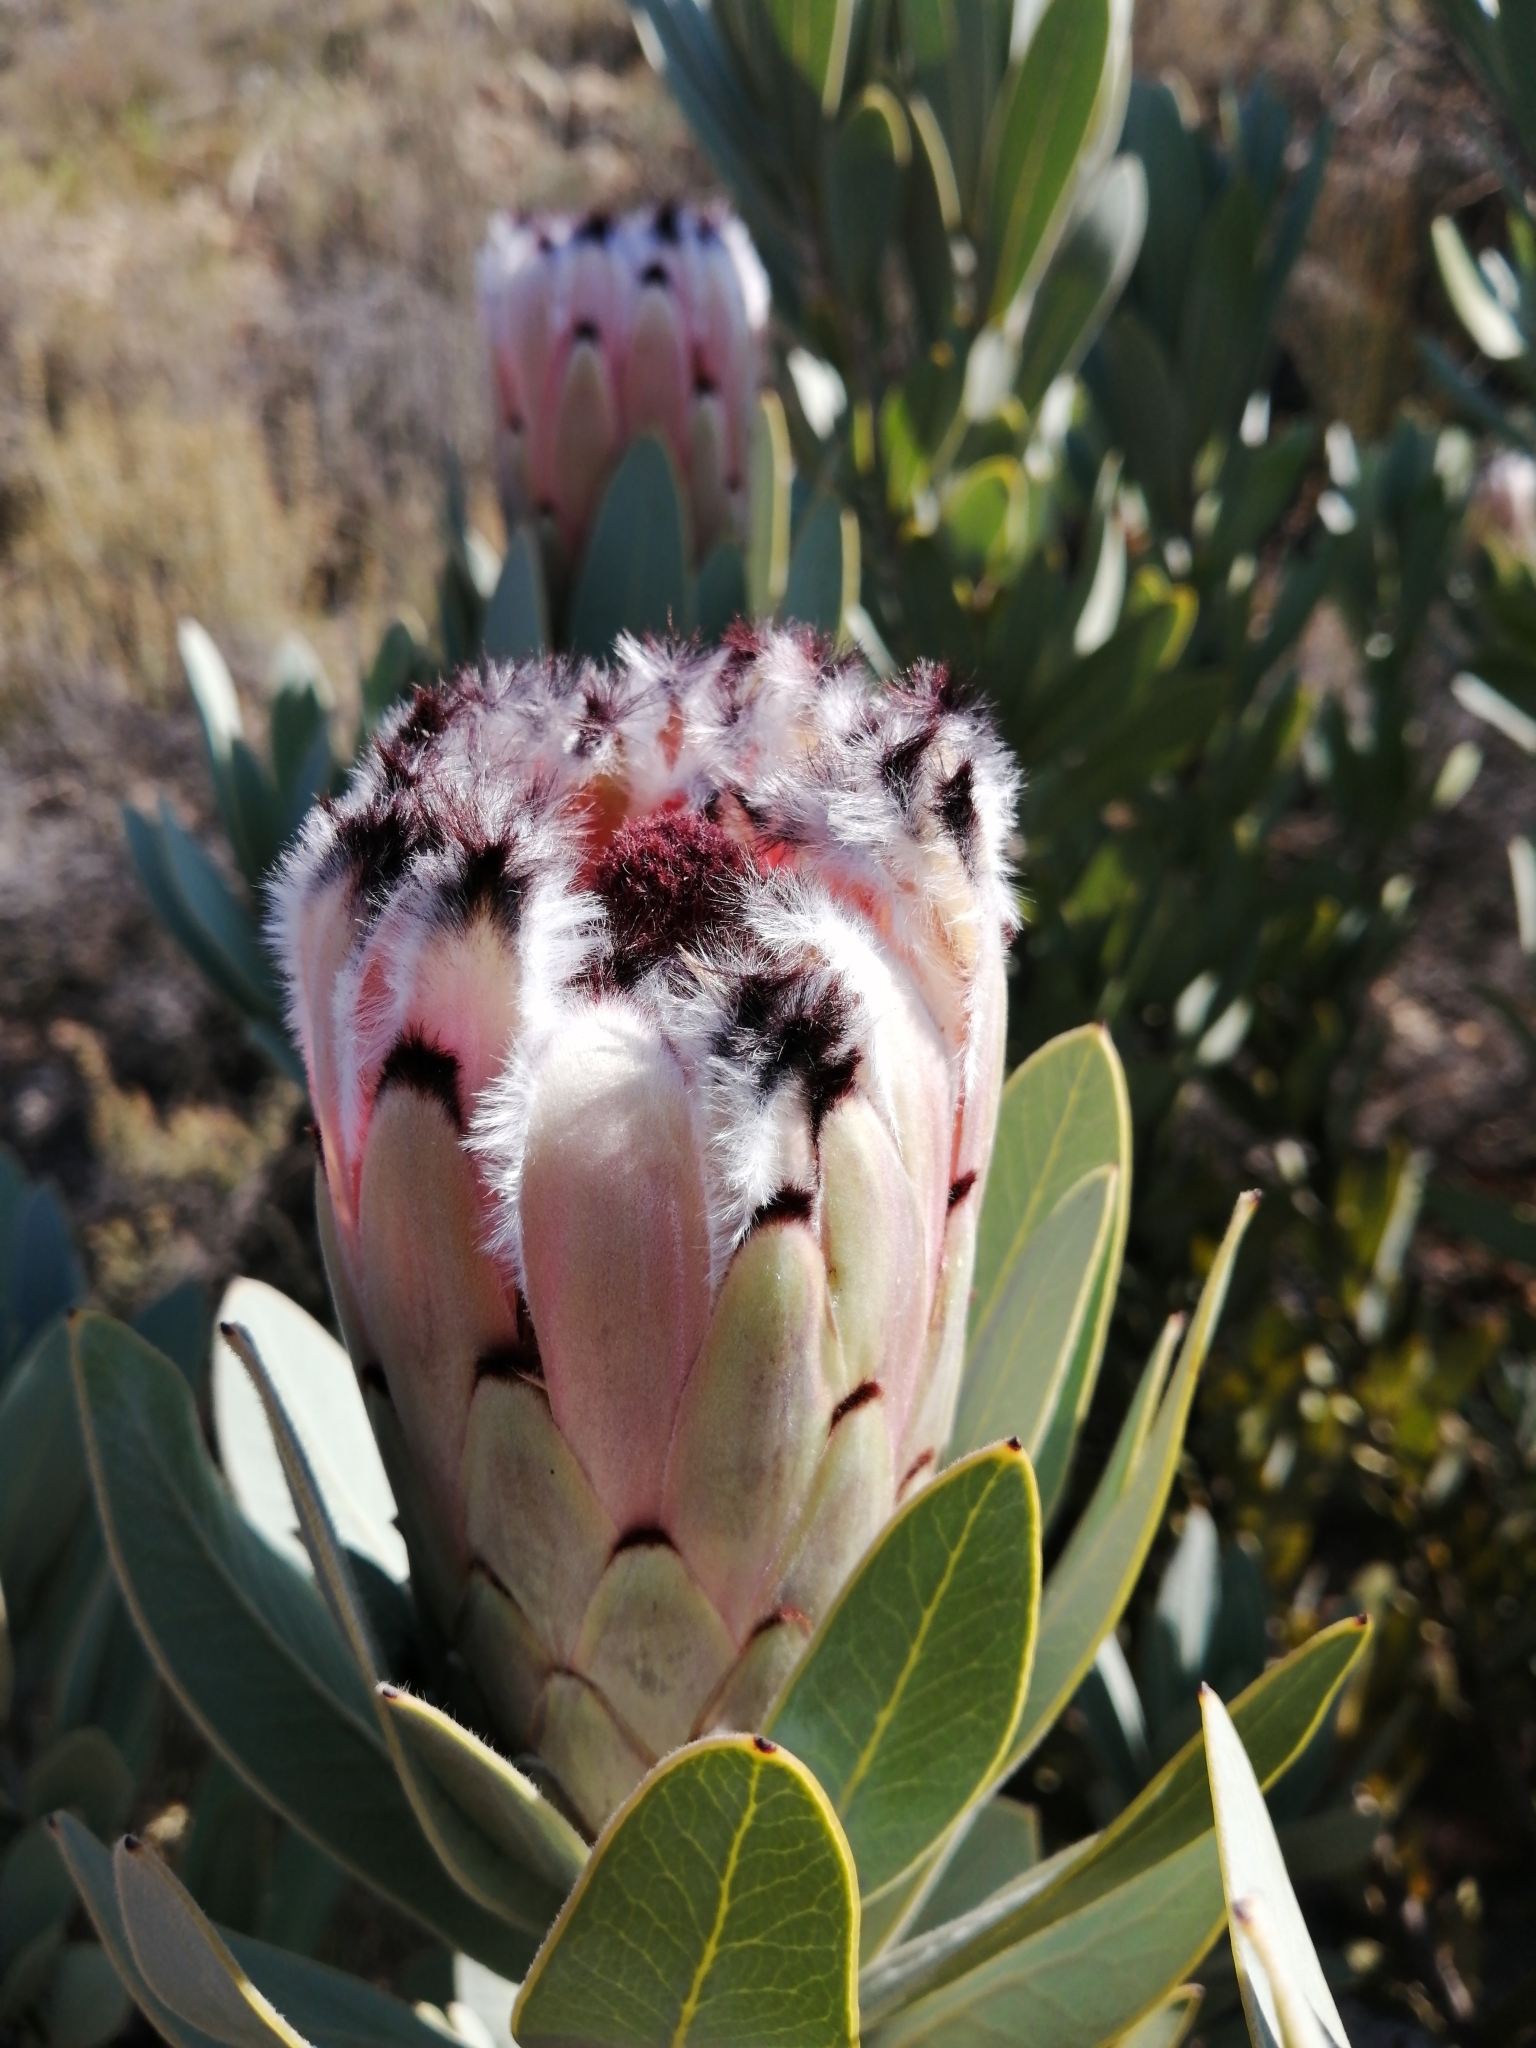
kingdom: Plantae
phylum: Tracheophyta
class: Magnoliopsida
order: Proteales
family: Proteaceae
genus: Protea
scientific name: Protea laurifolia
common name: Grey-leaf sugarbsh
